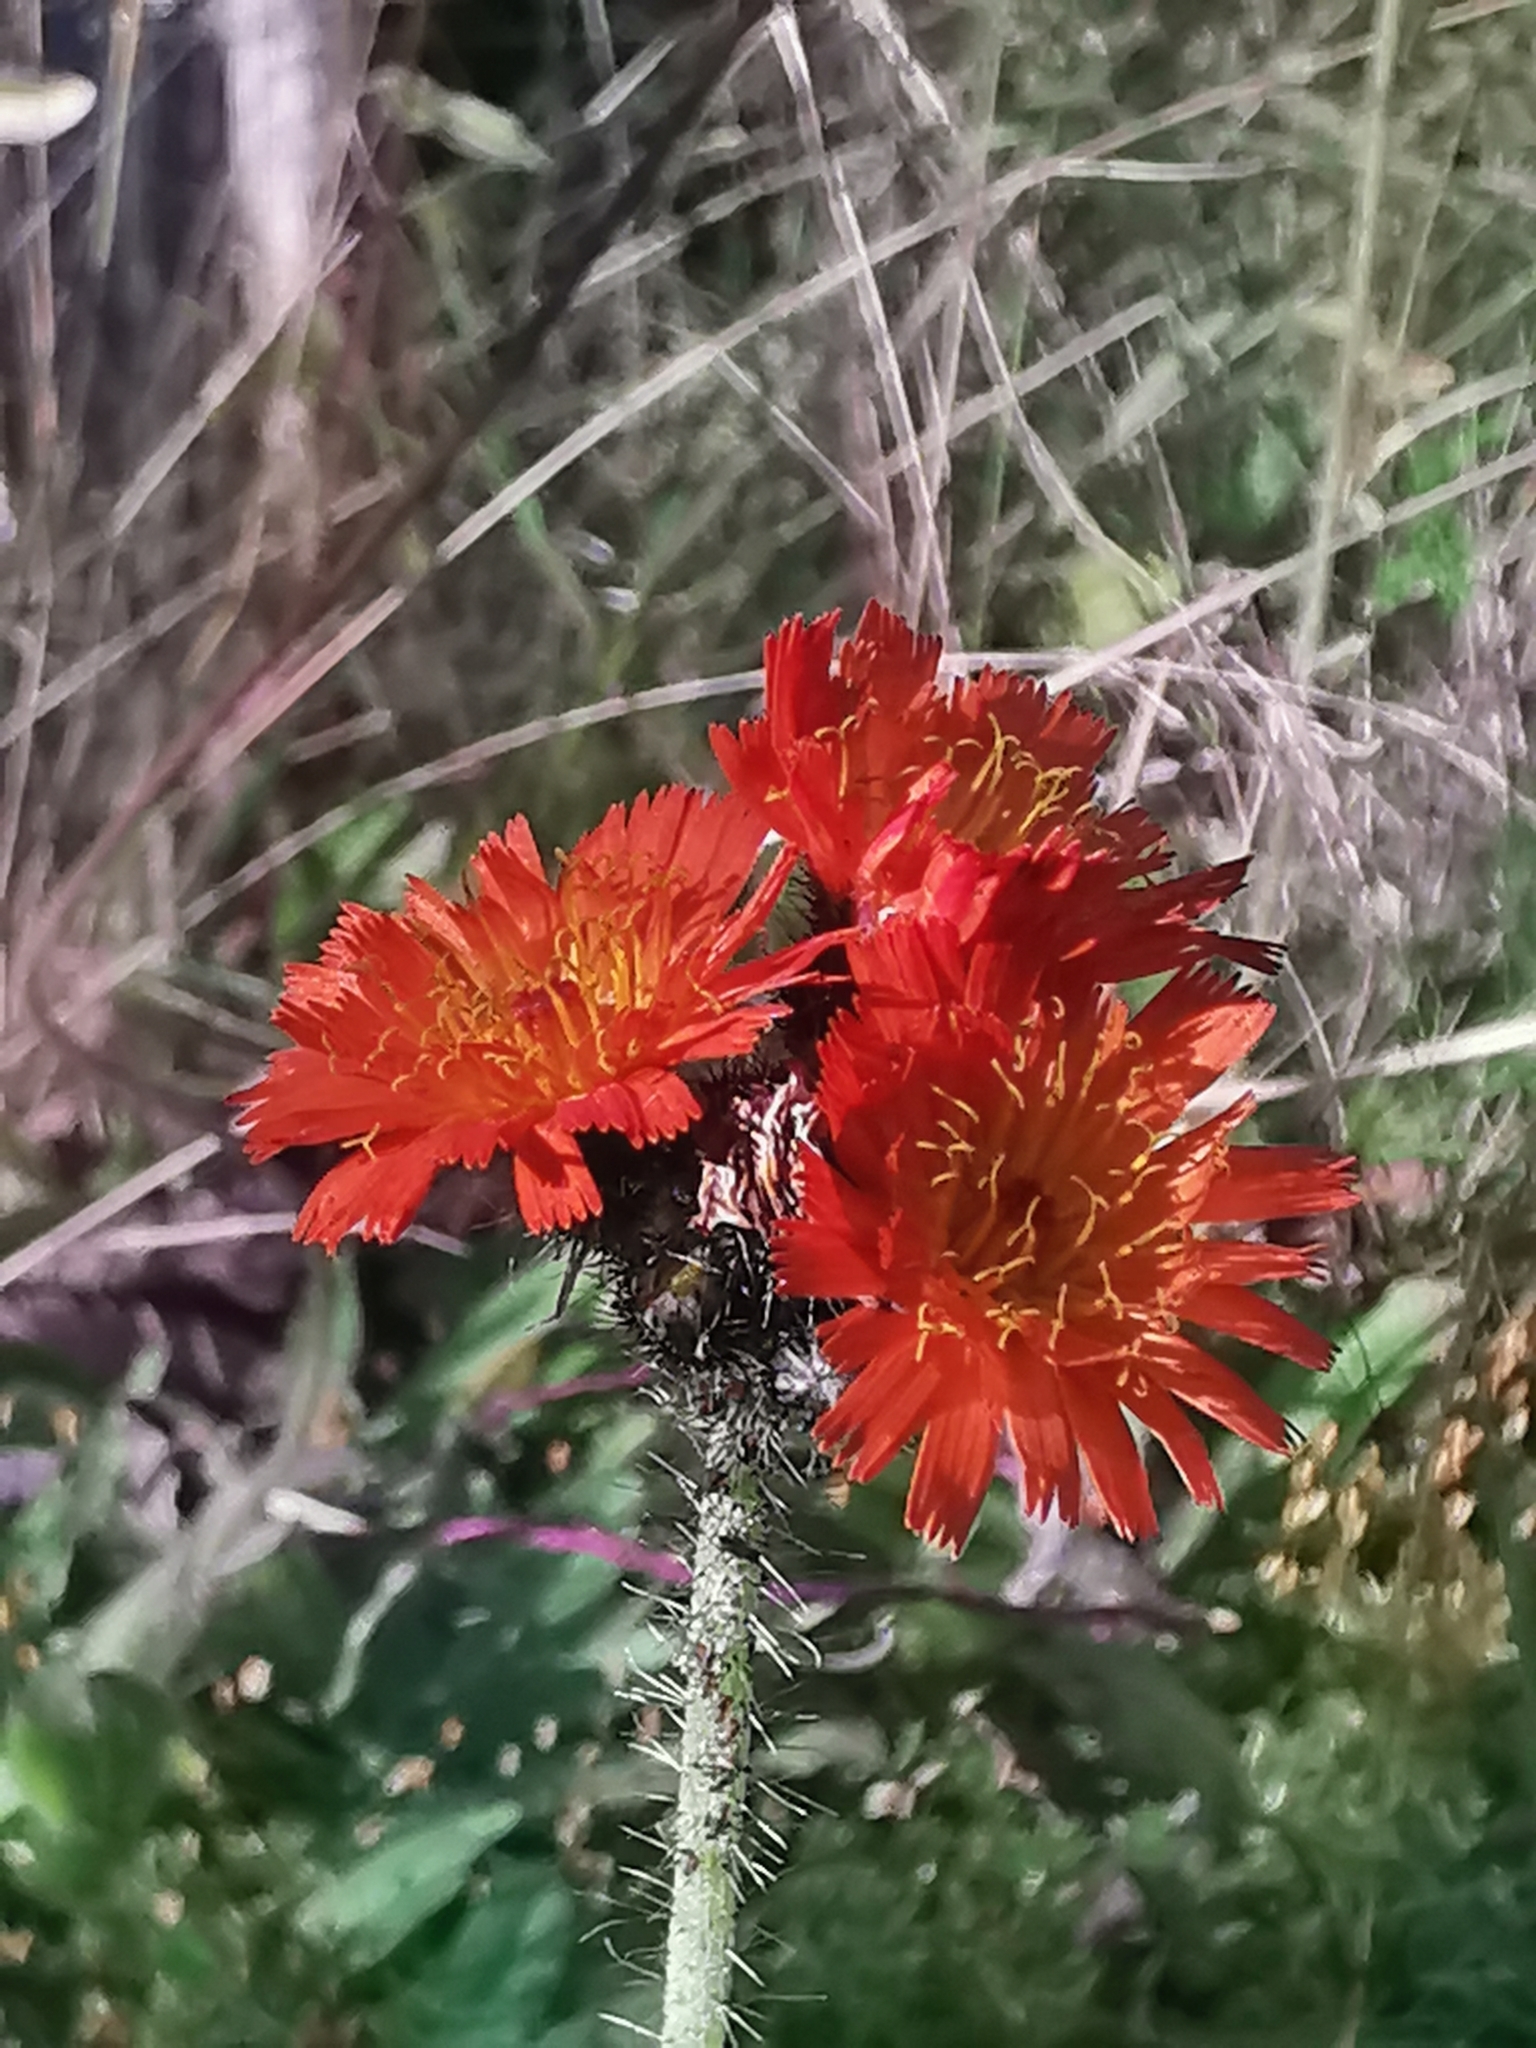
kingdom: Plantae
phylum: Tracheophyta
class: Magnoliopsida
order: Asterales
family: Asteraceae
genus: Pilosella
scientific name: Pilosella aurantiaca
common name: Fox-and-cubs
